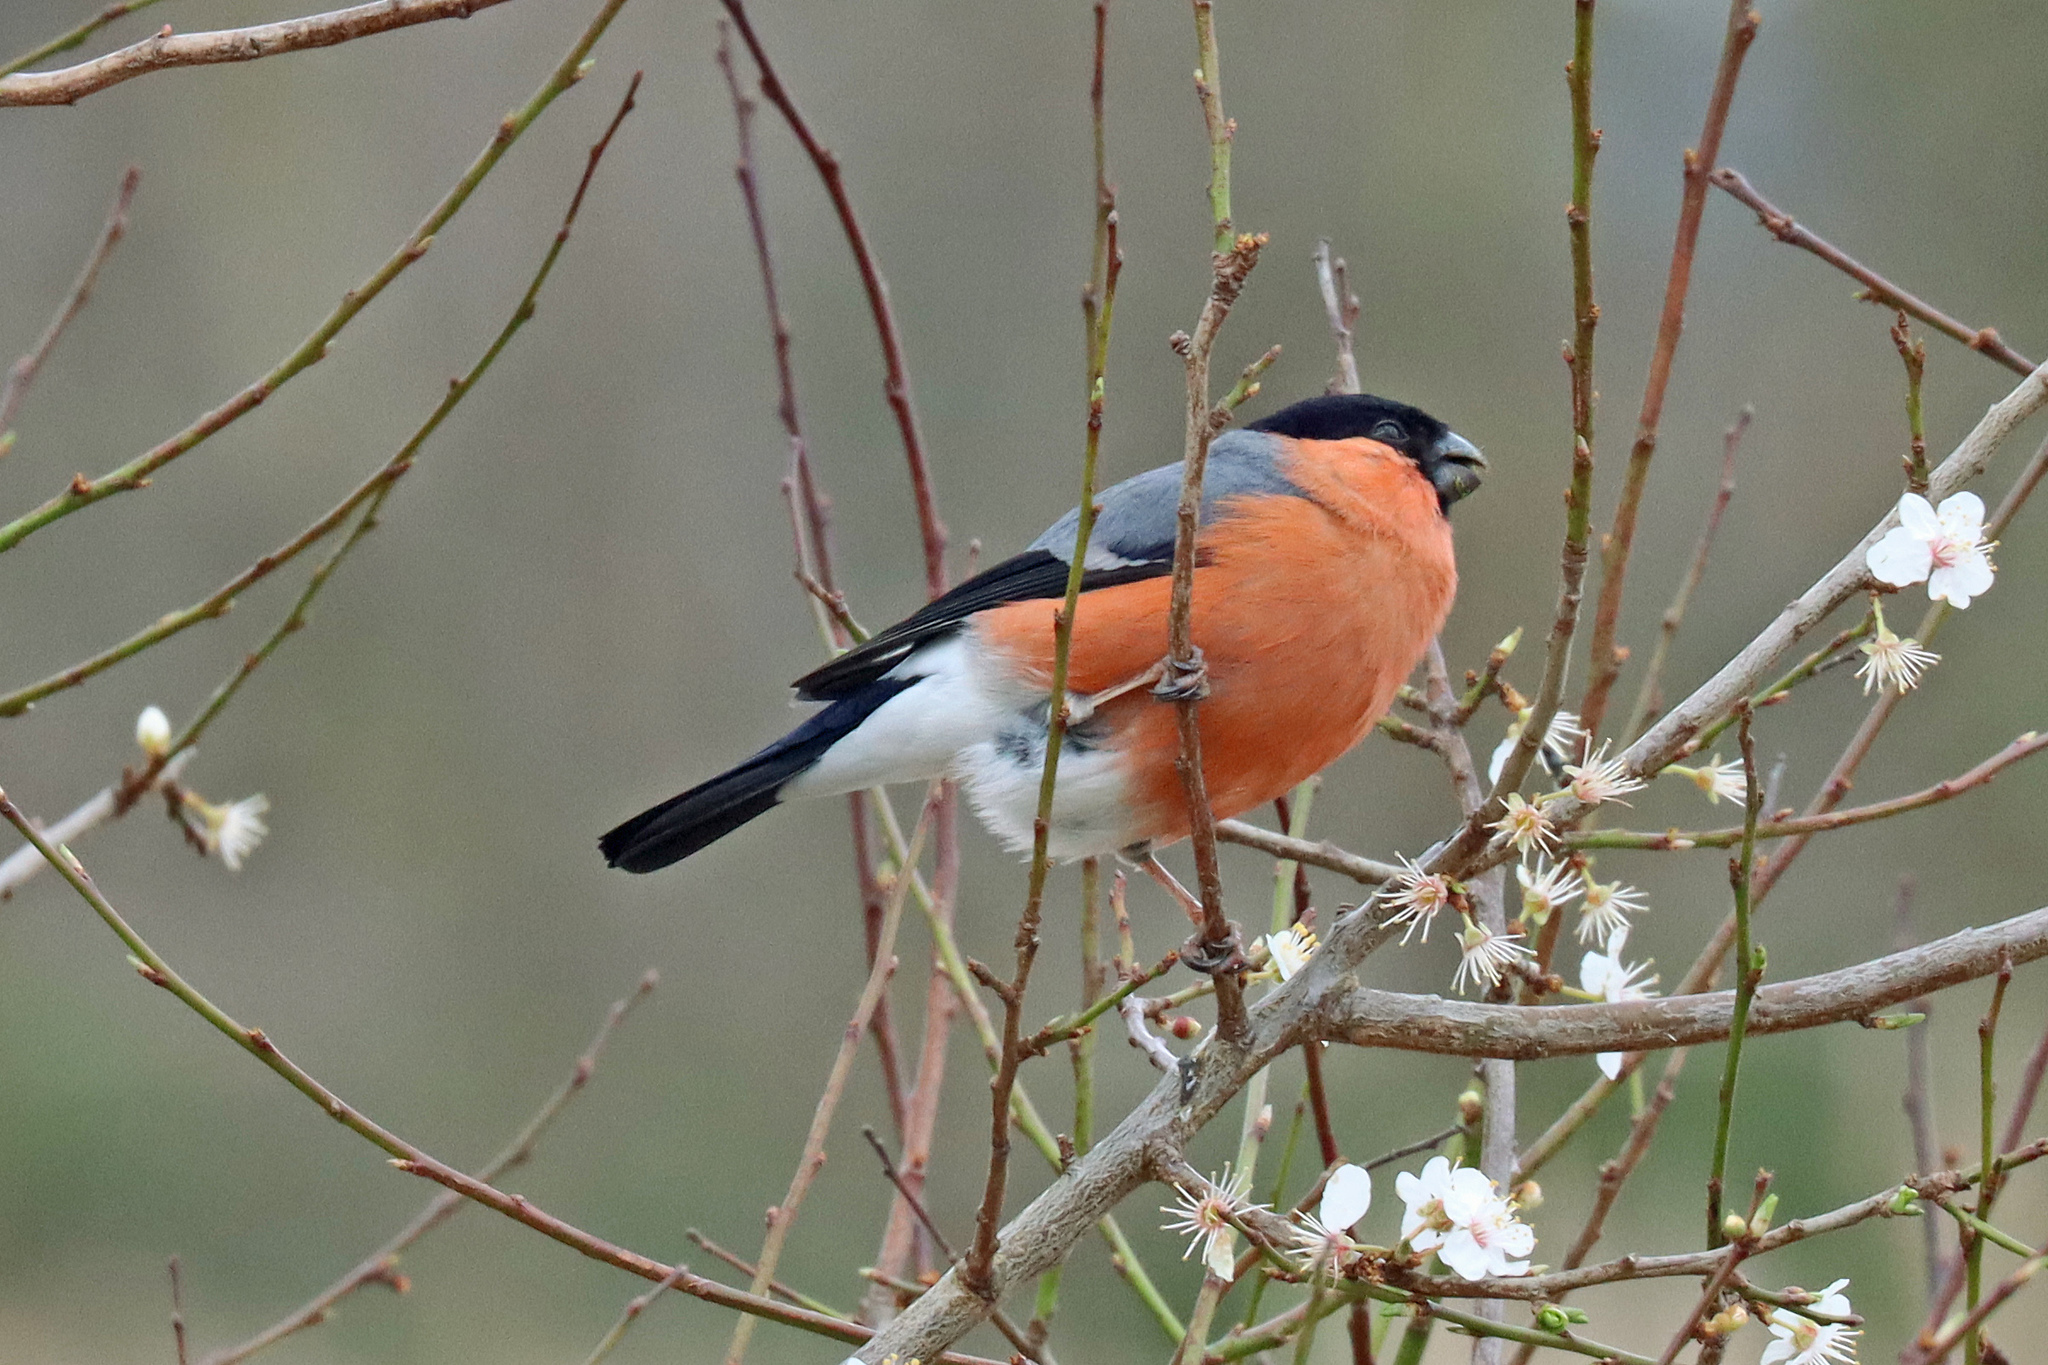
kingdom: Animalia
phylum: Chordata
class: Aves
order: Passeriformes
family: Fringillidae
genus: Pyrrhula
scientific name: Pyrrhula pyrrhula
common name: Eurasian bullfinch
